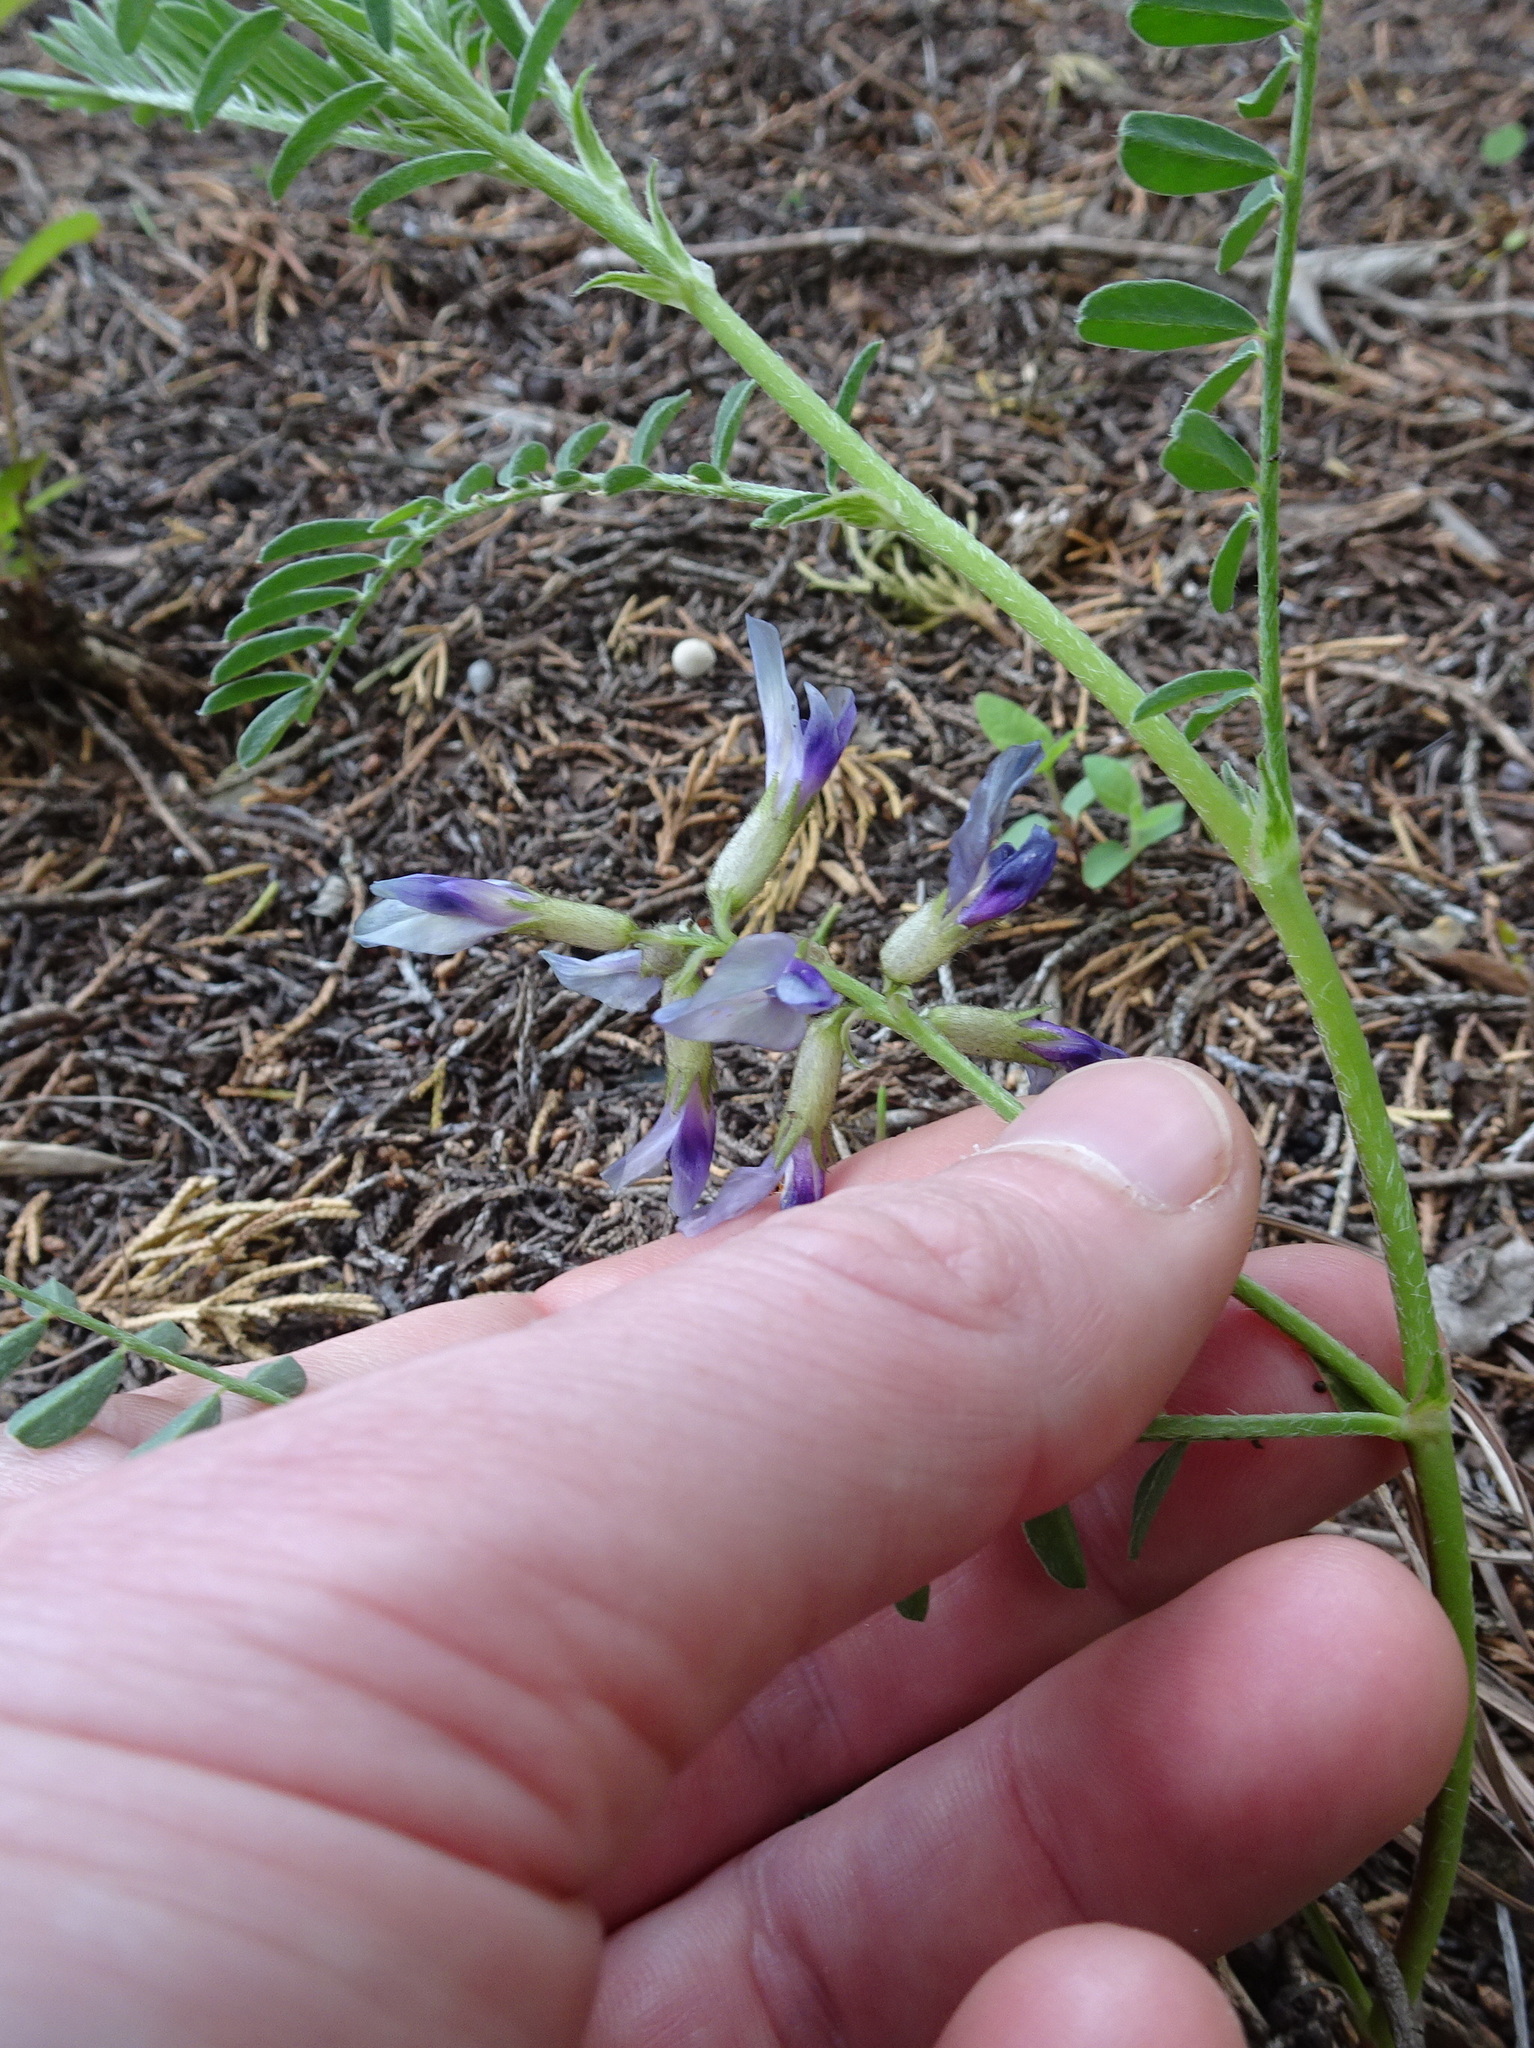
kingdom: Plantae
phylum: Tracheophyta
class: Magnoliopsida
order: Fabales
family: Fabaceae
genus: Astragalus
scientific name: Astragalus crassicarpus
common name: Ground-plum milk-vetch
